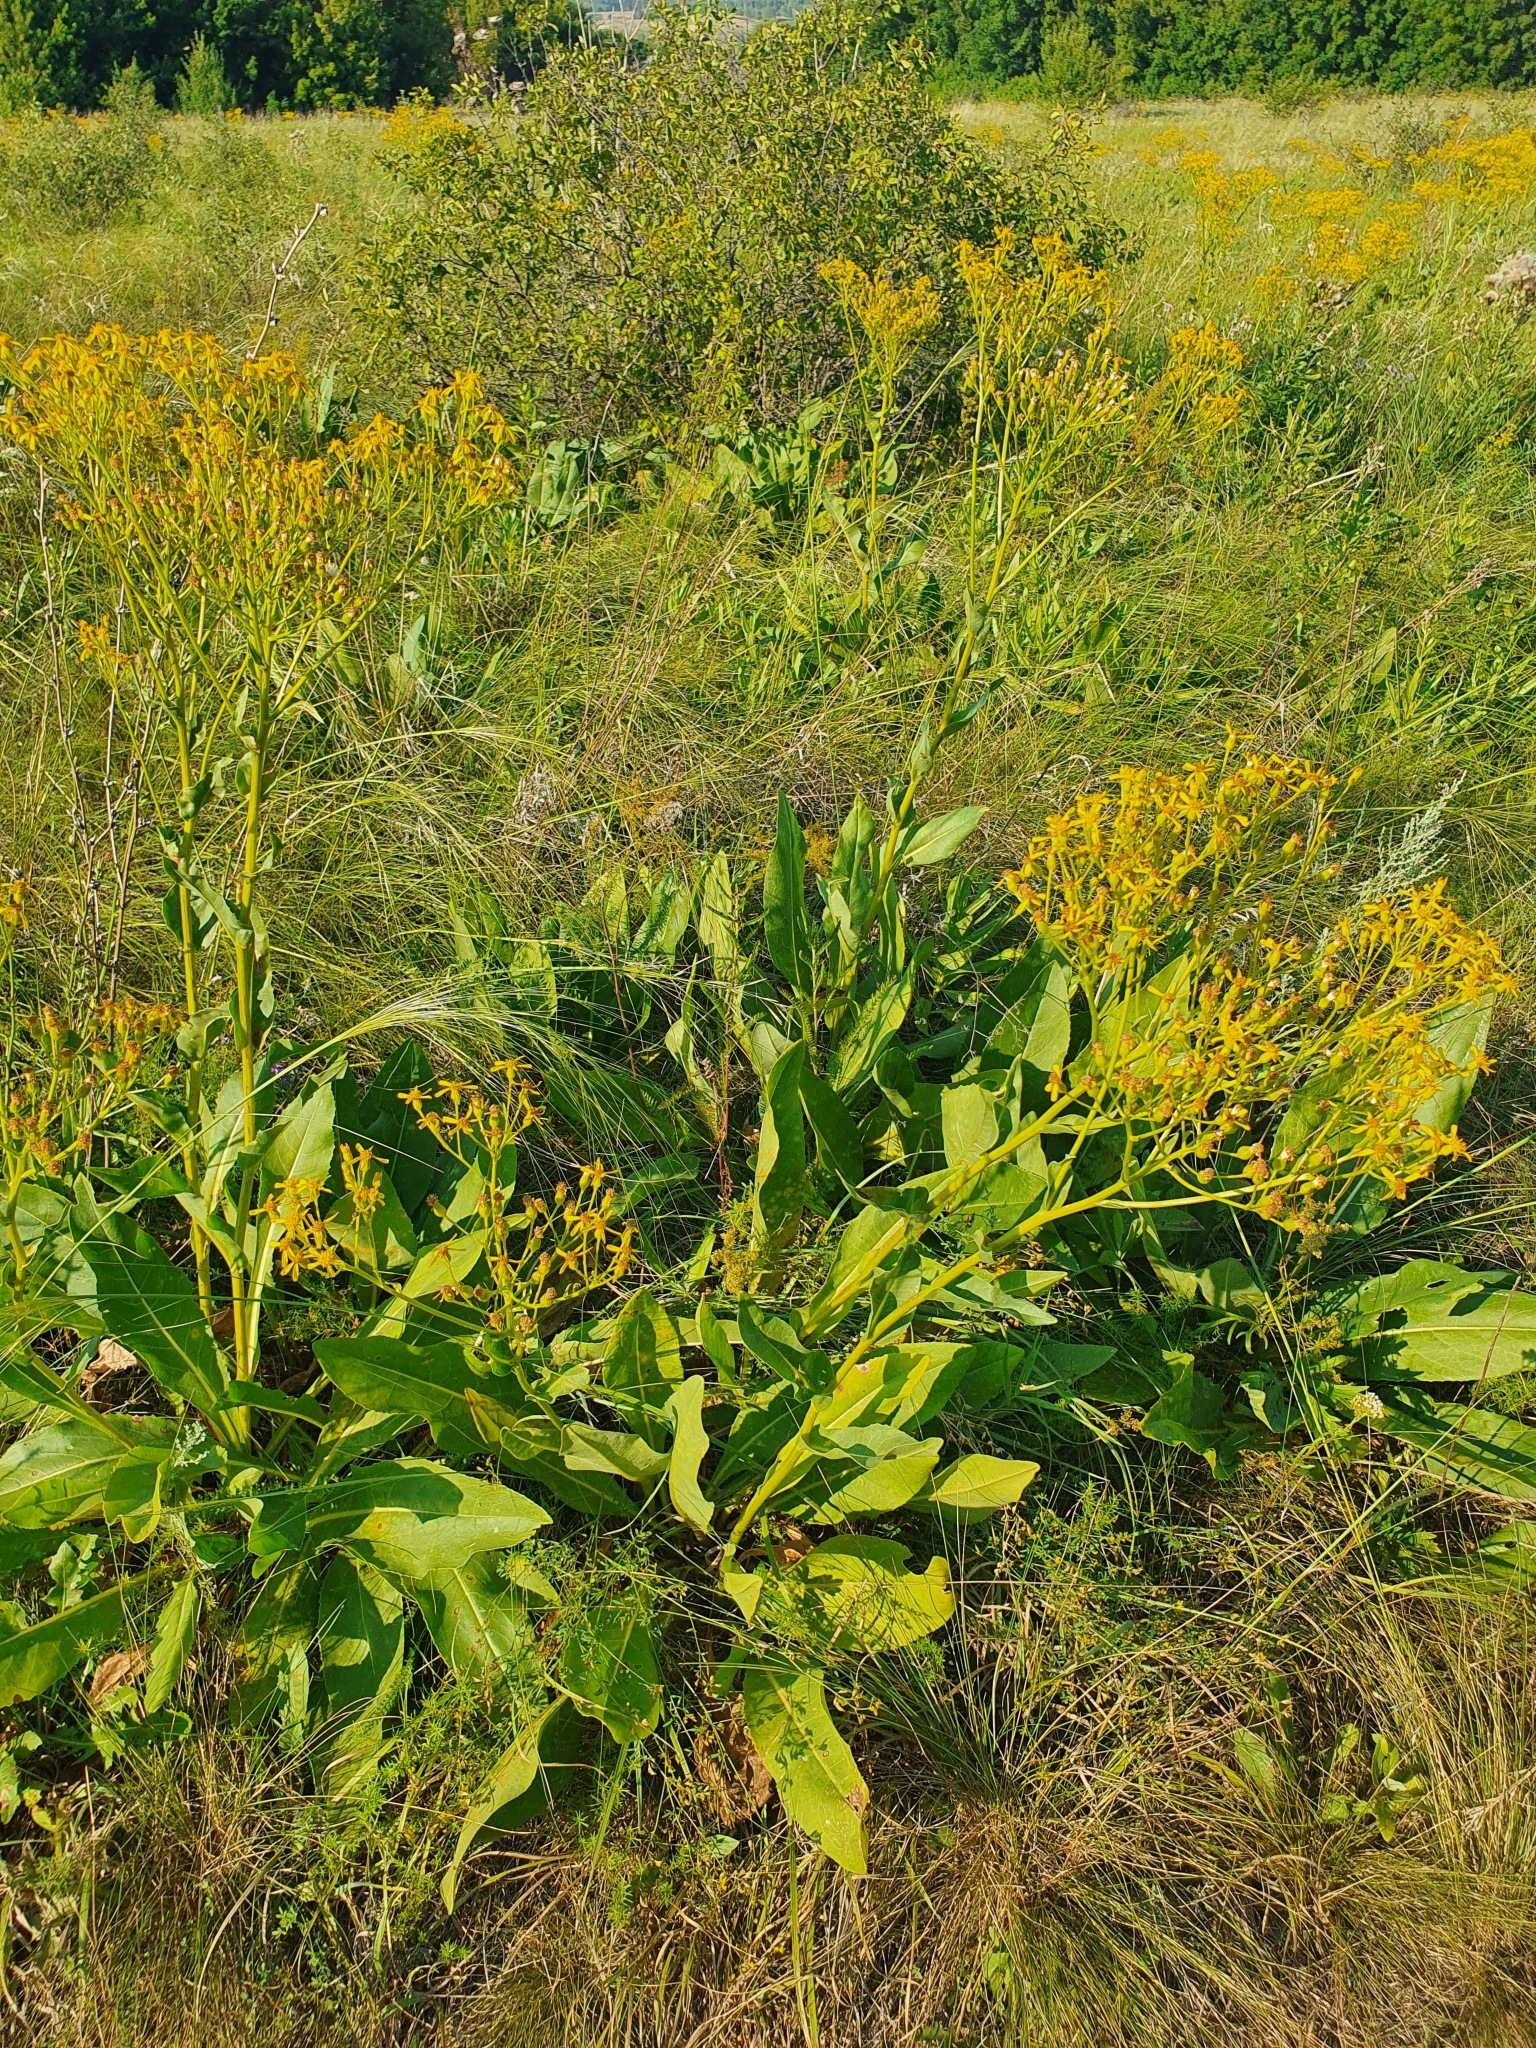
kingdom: Plantae
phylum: Tracheophyta
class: Magnoliopsida
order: Asterales
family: Asteraceae
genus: Senecio
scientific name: Senecio doria
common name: Golden ragwort
